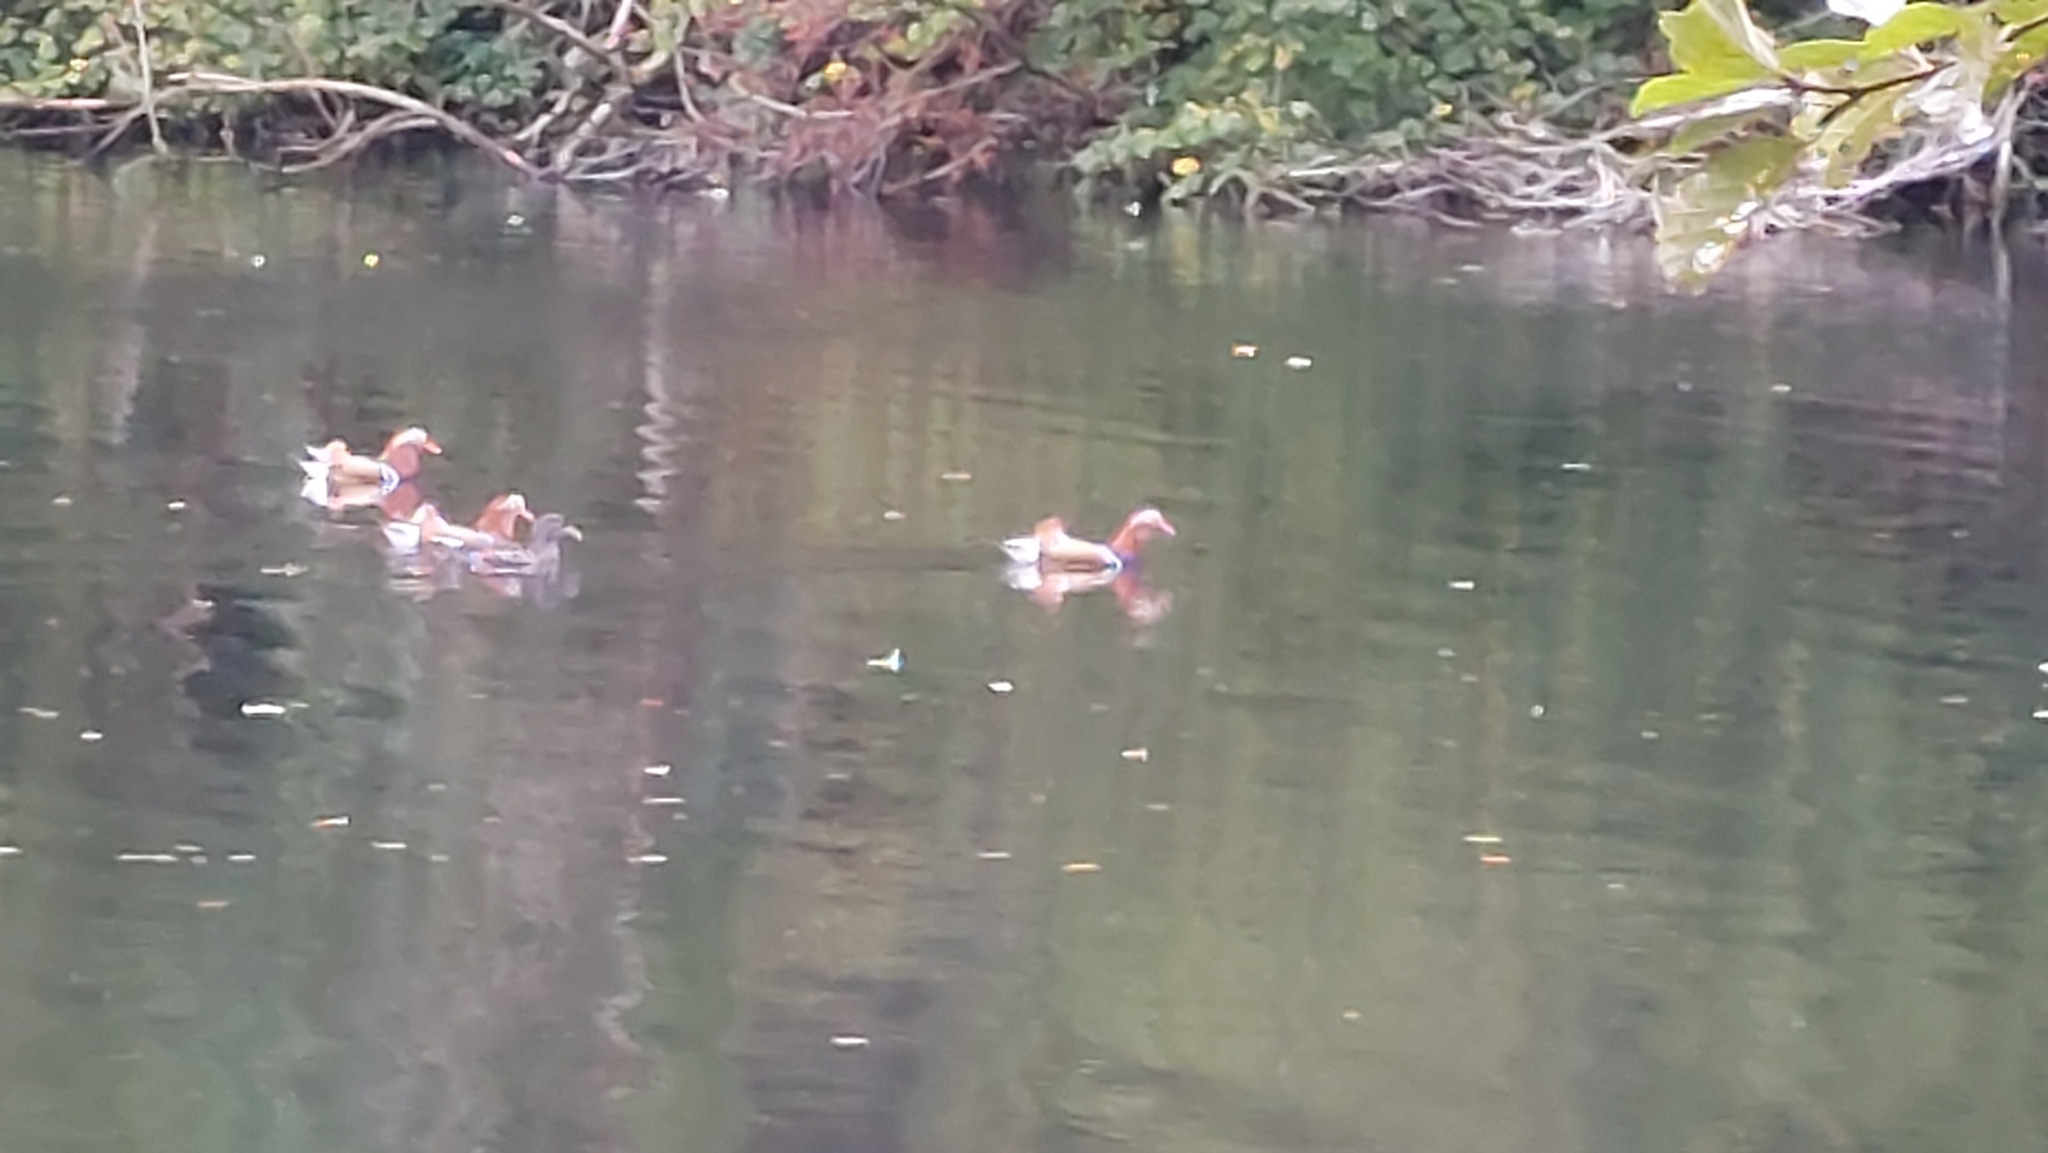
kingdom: Animalia
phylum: Chordata
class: Aves
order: Anseriformes
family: Anatidae
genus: Aix
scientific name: Aix galericulata
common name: Mandarin duck
